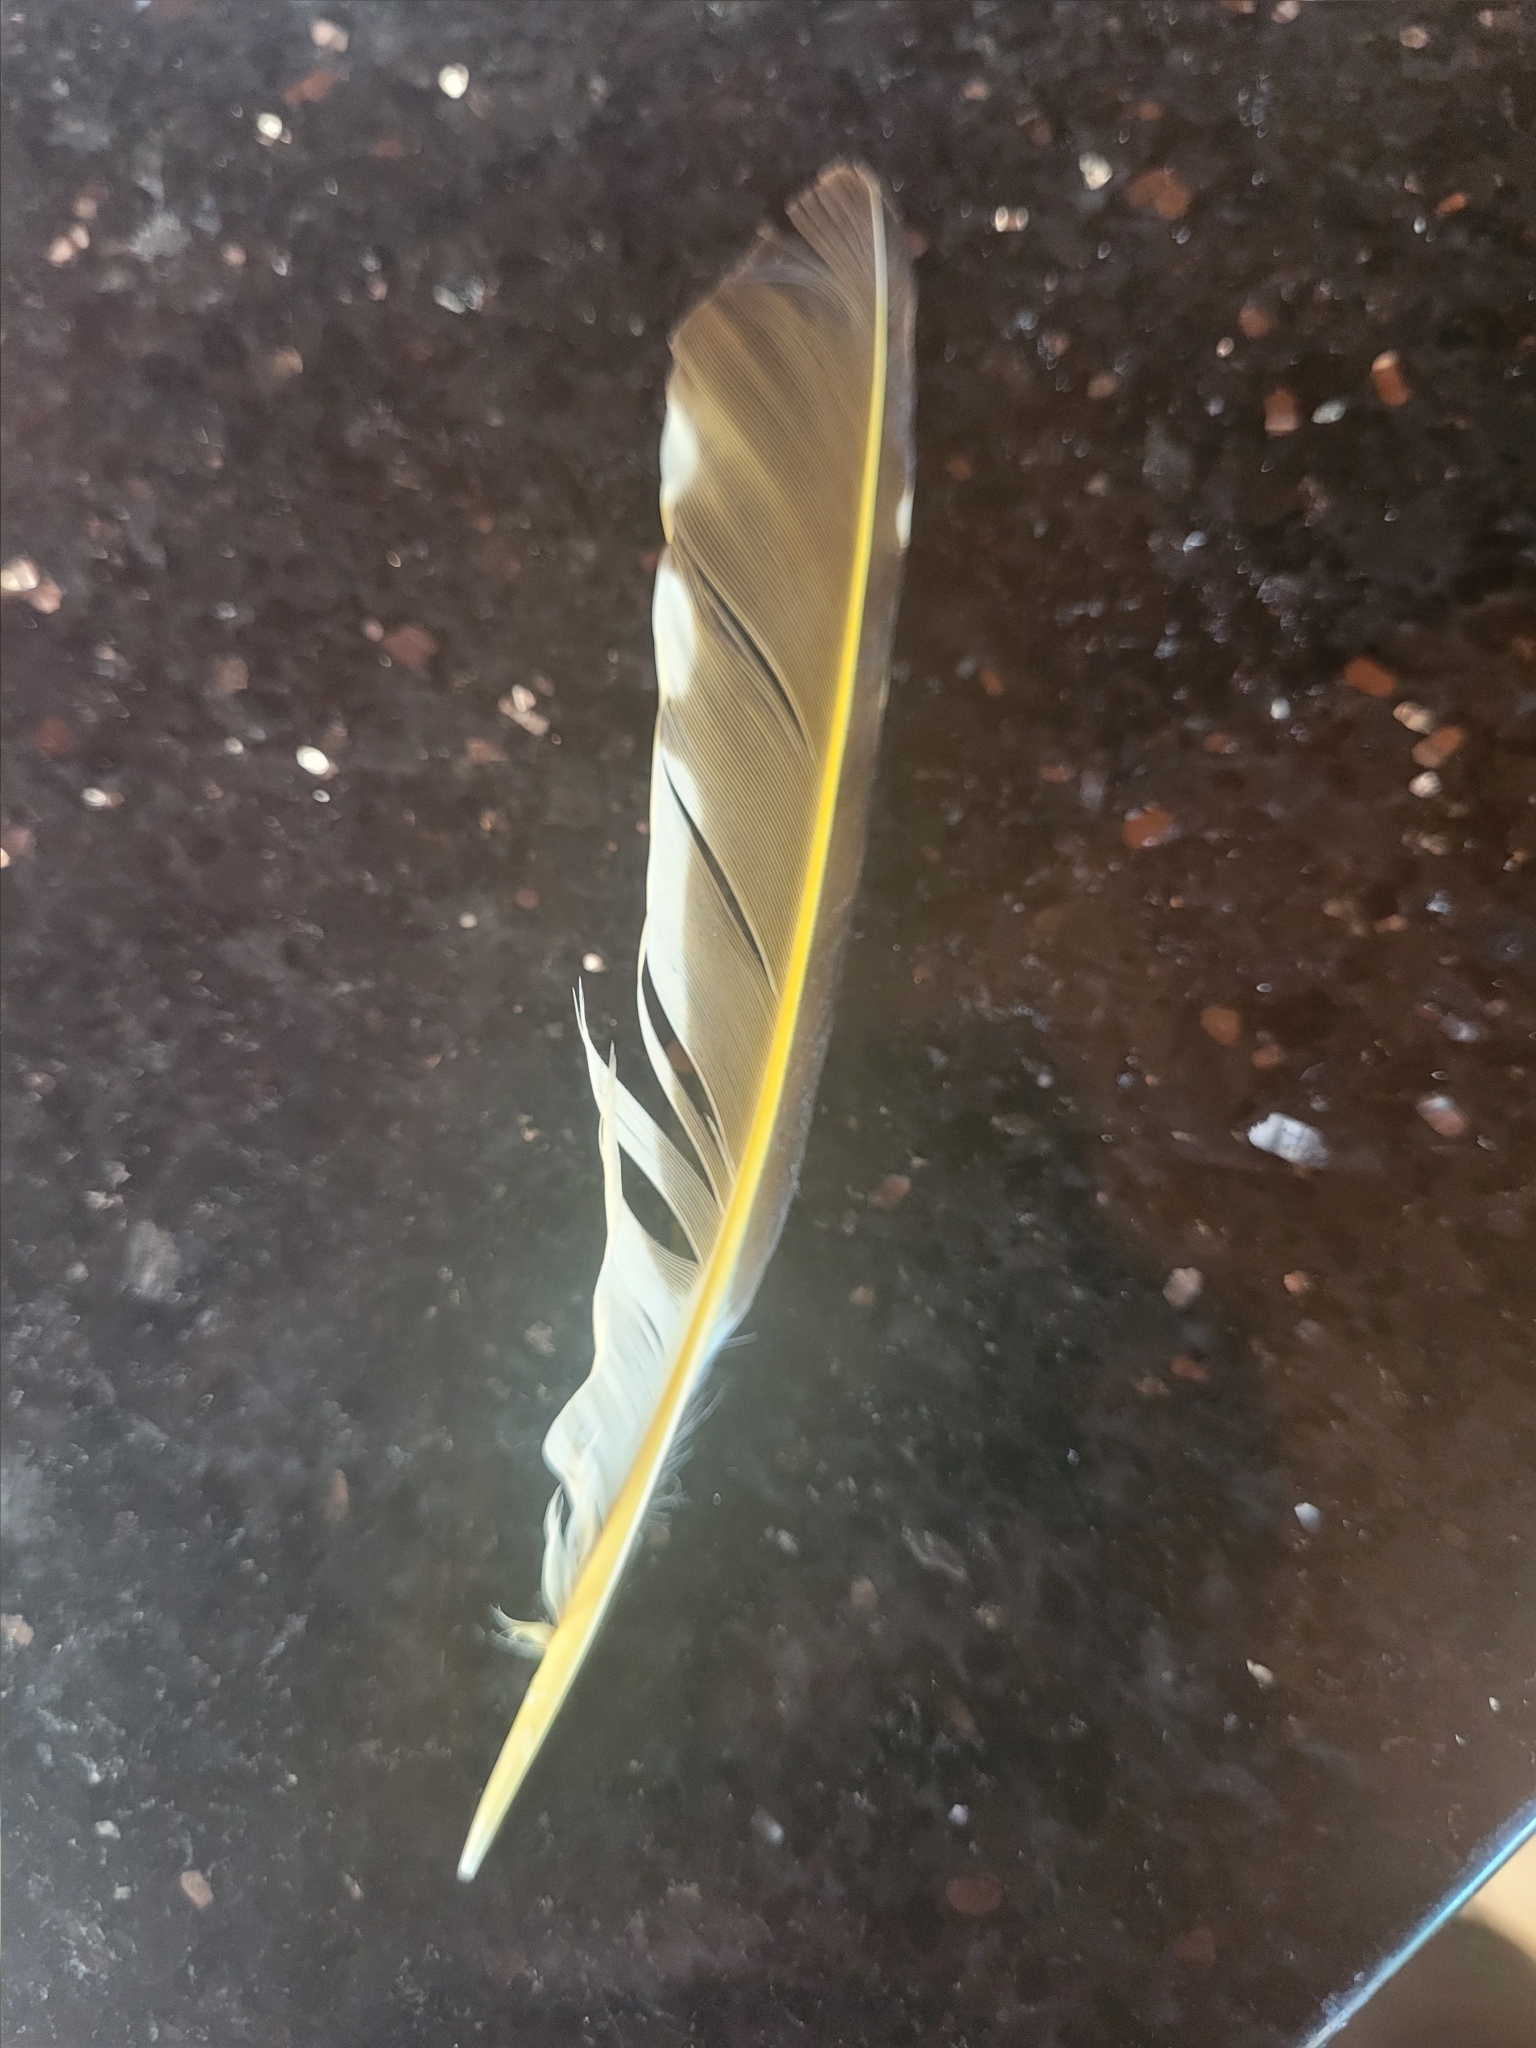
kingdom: Animalia
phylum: Chordata
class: Aves
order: Piciformes
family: Picidae
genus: Colaptes
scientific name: Colaptes auratus
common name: Northern flicker
